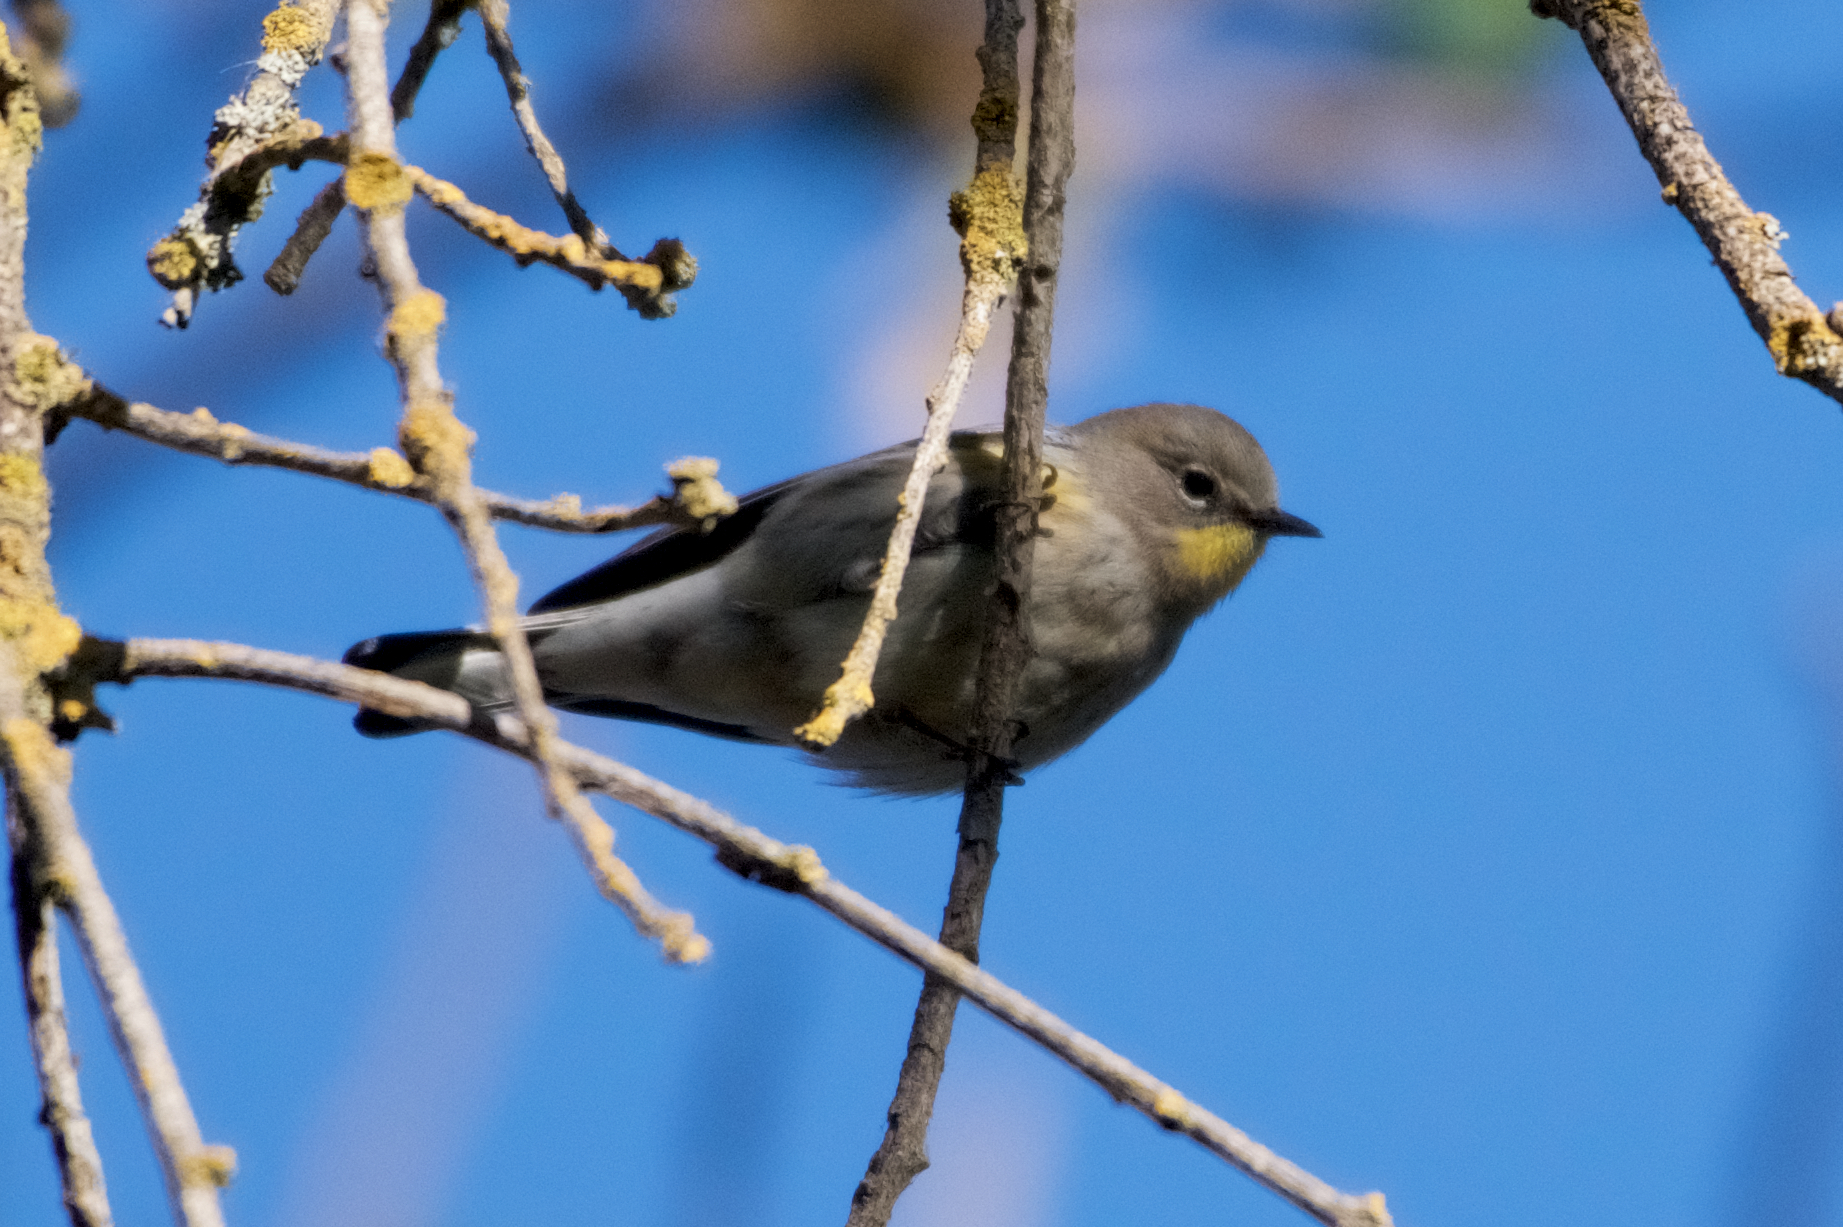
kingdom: Animalia
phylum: Chordata
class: Aves
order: Passeriformes
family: Parulidae
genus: Setophaga
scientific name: Setophaga coronata
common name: Myrtle warbler
